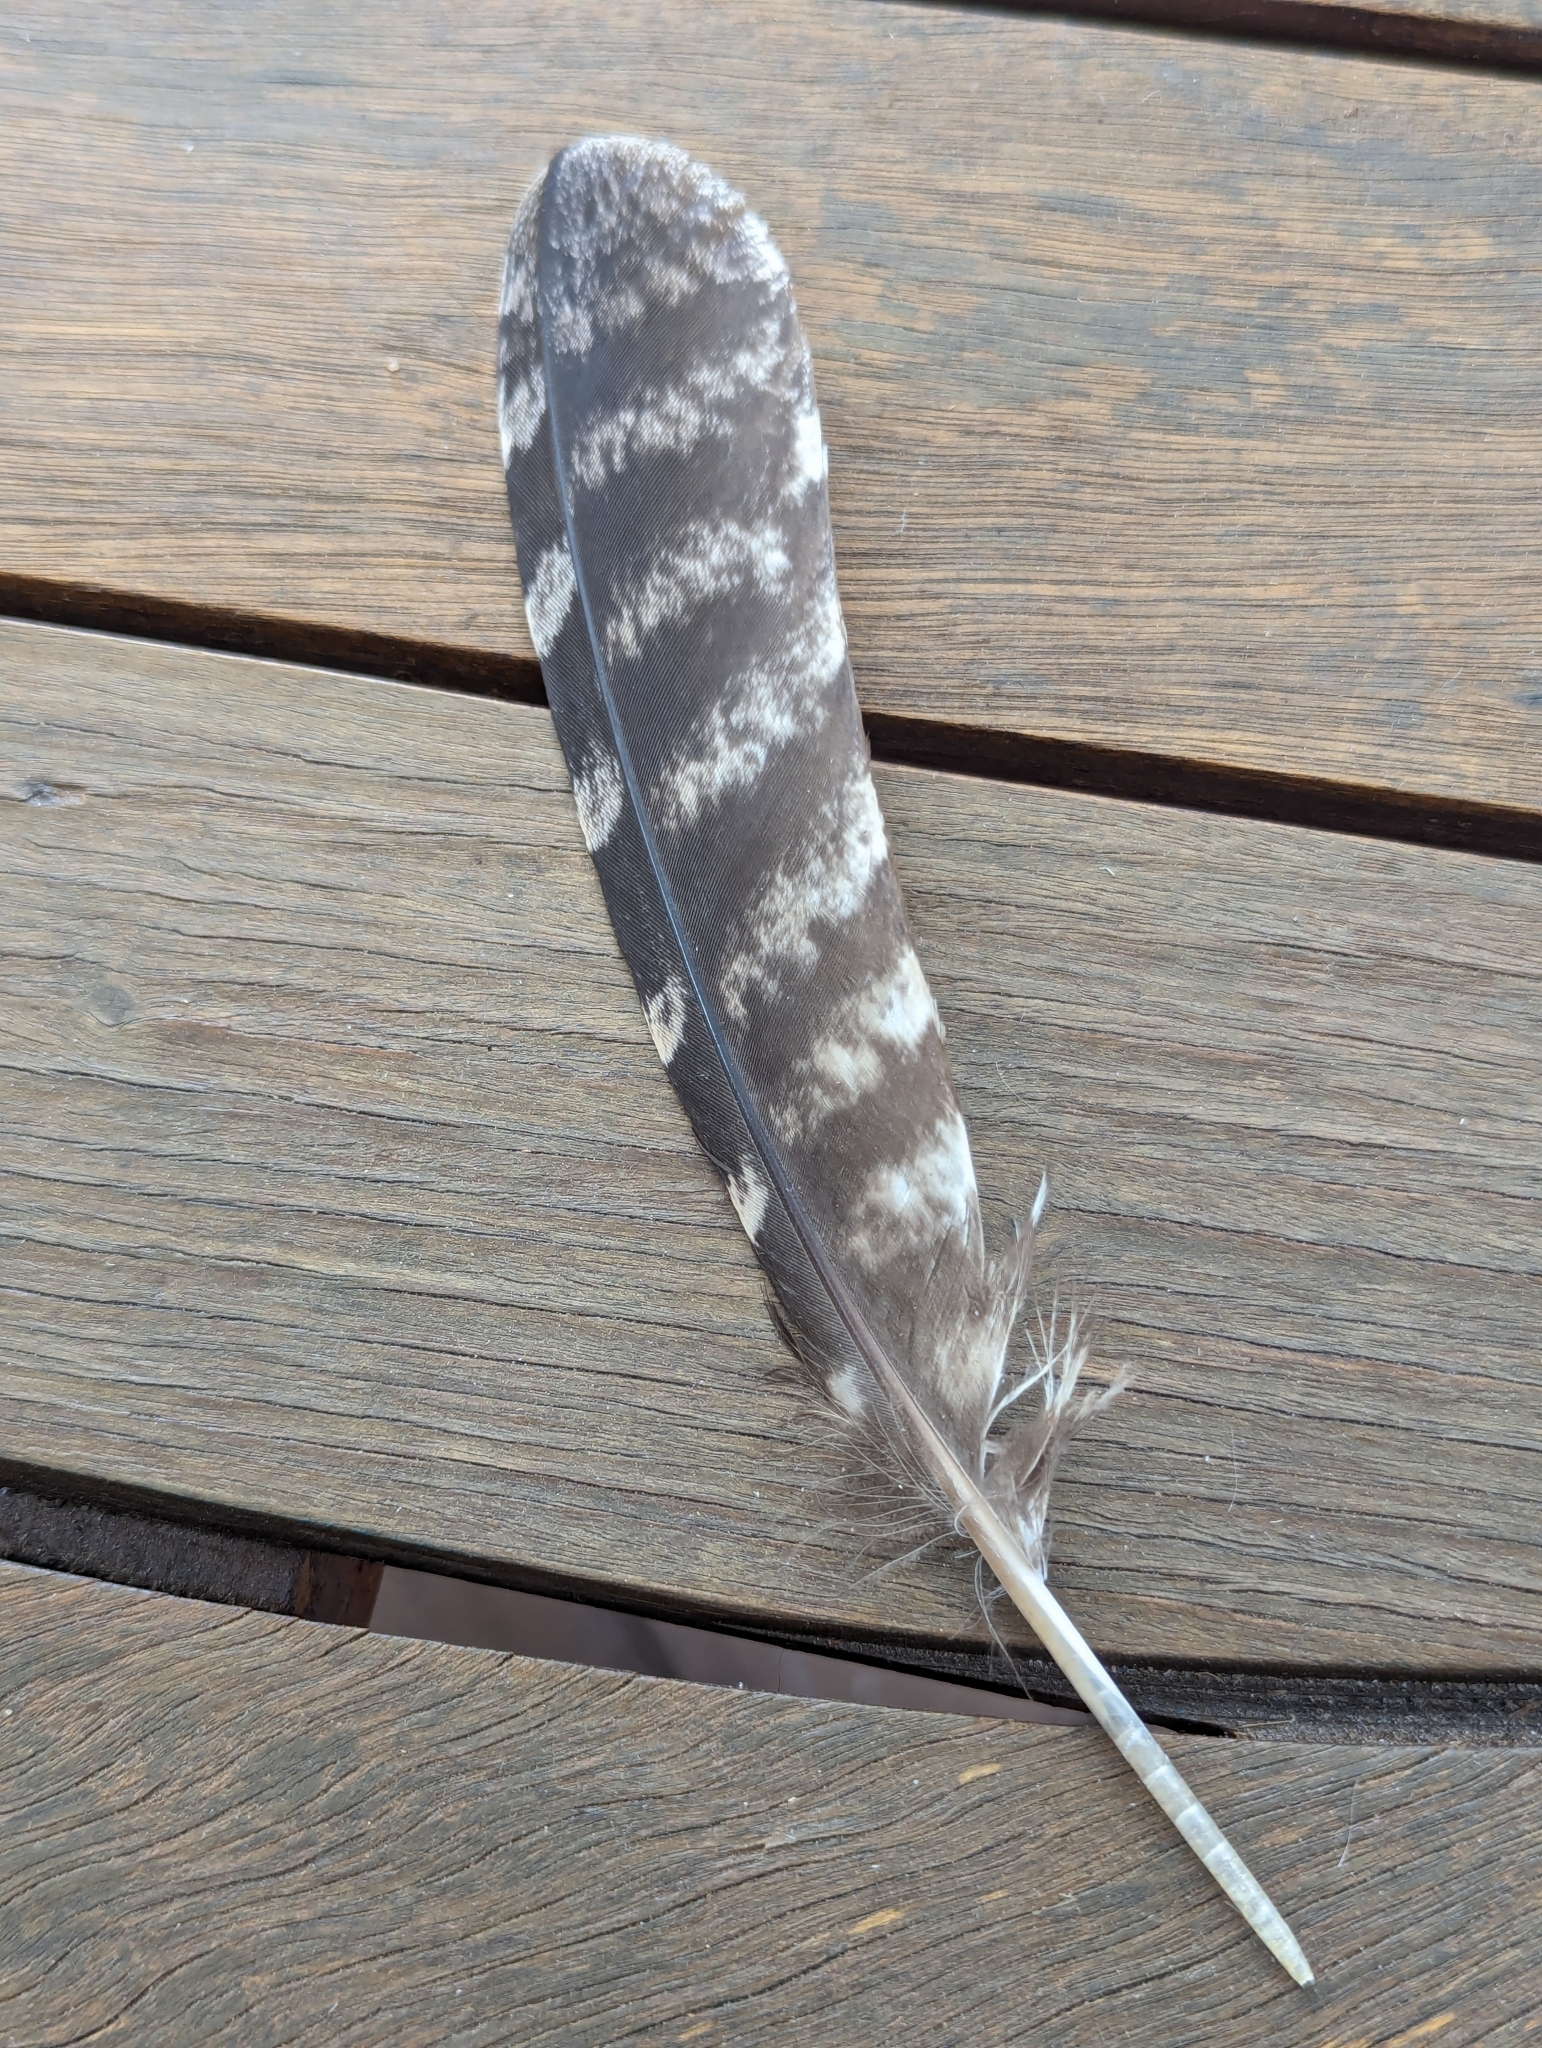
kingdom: Animalia
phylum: Chordata
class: Aves
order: Caprimulgiformes
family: Podargidae
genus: Podargus
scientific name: Podargus strigoides
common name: Tawny frogmouth
